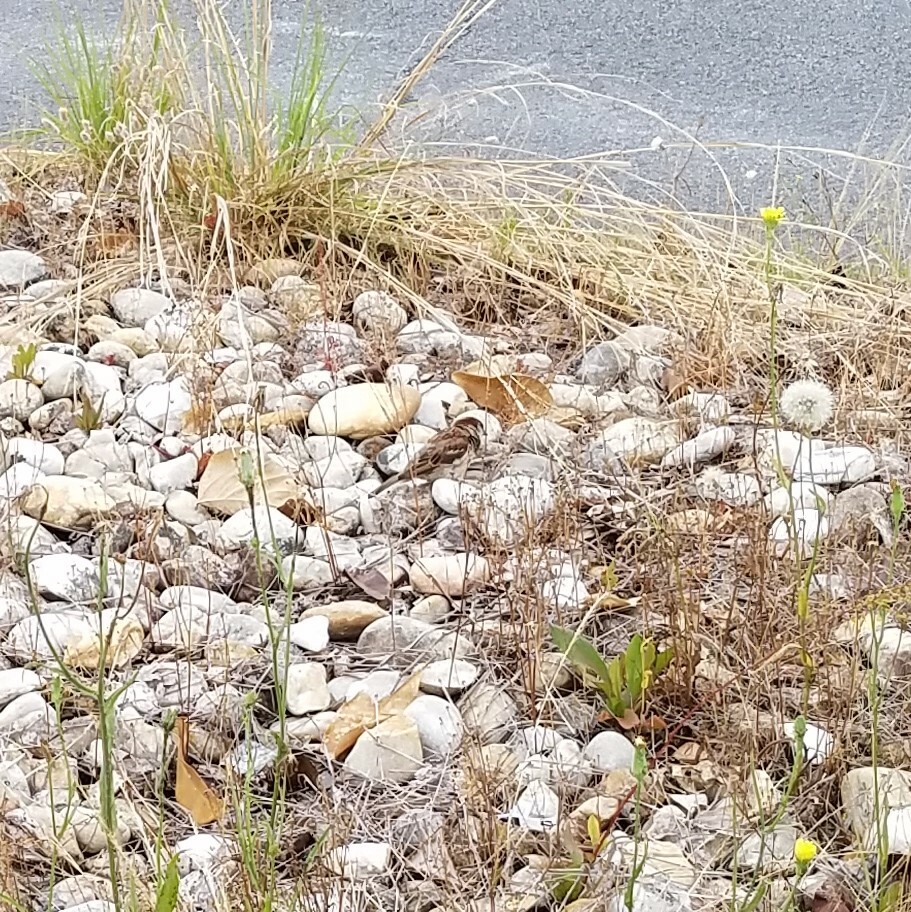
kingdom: Animalia
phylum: Chordata
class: Aves
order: Passeriformes
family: Passeridae
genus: Passer
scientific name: Passer domesticus
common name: House sparrow
